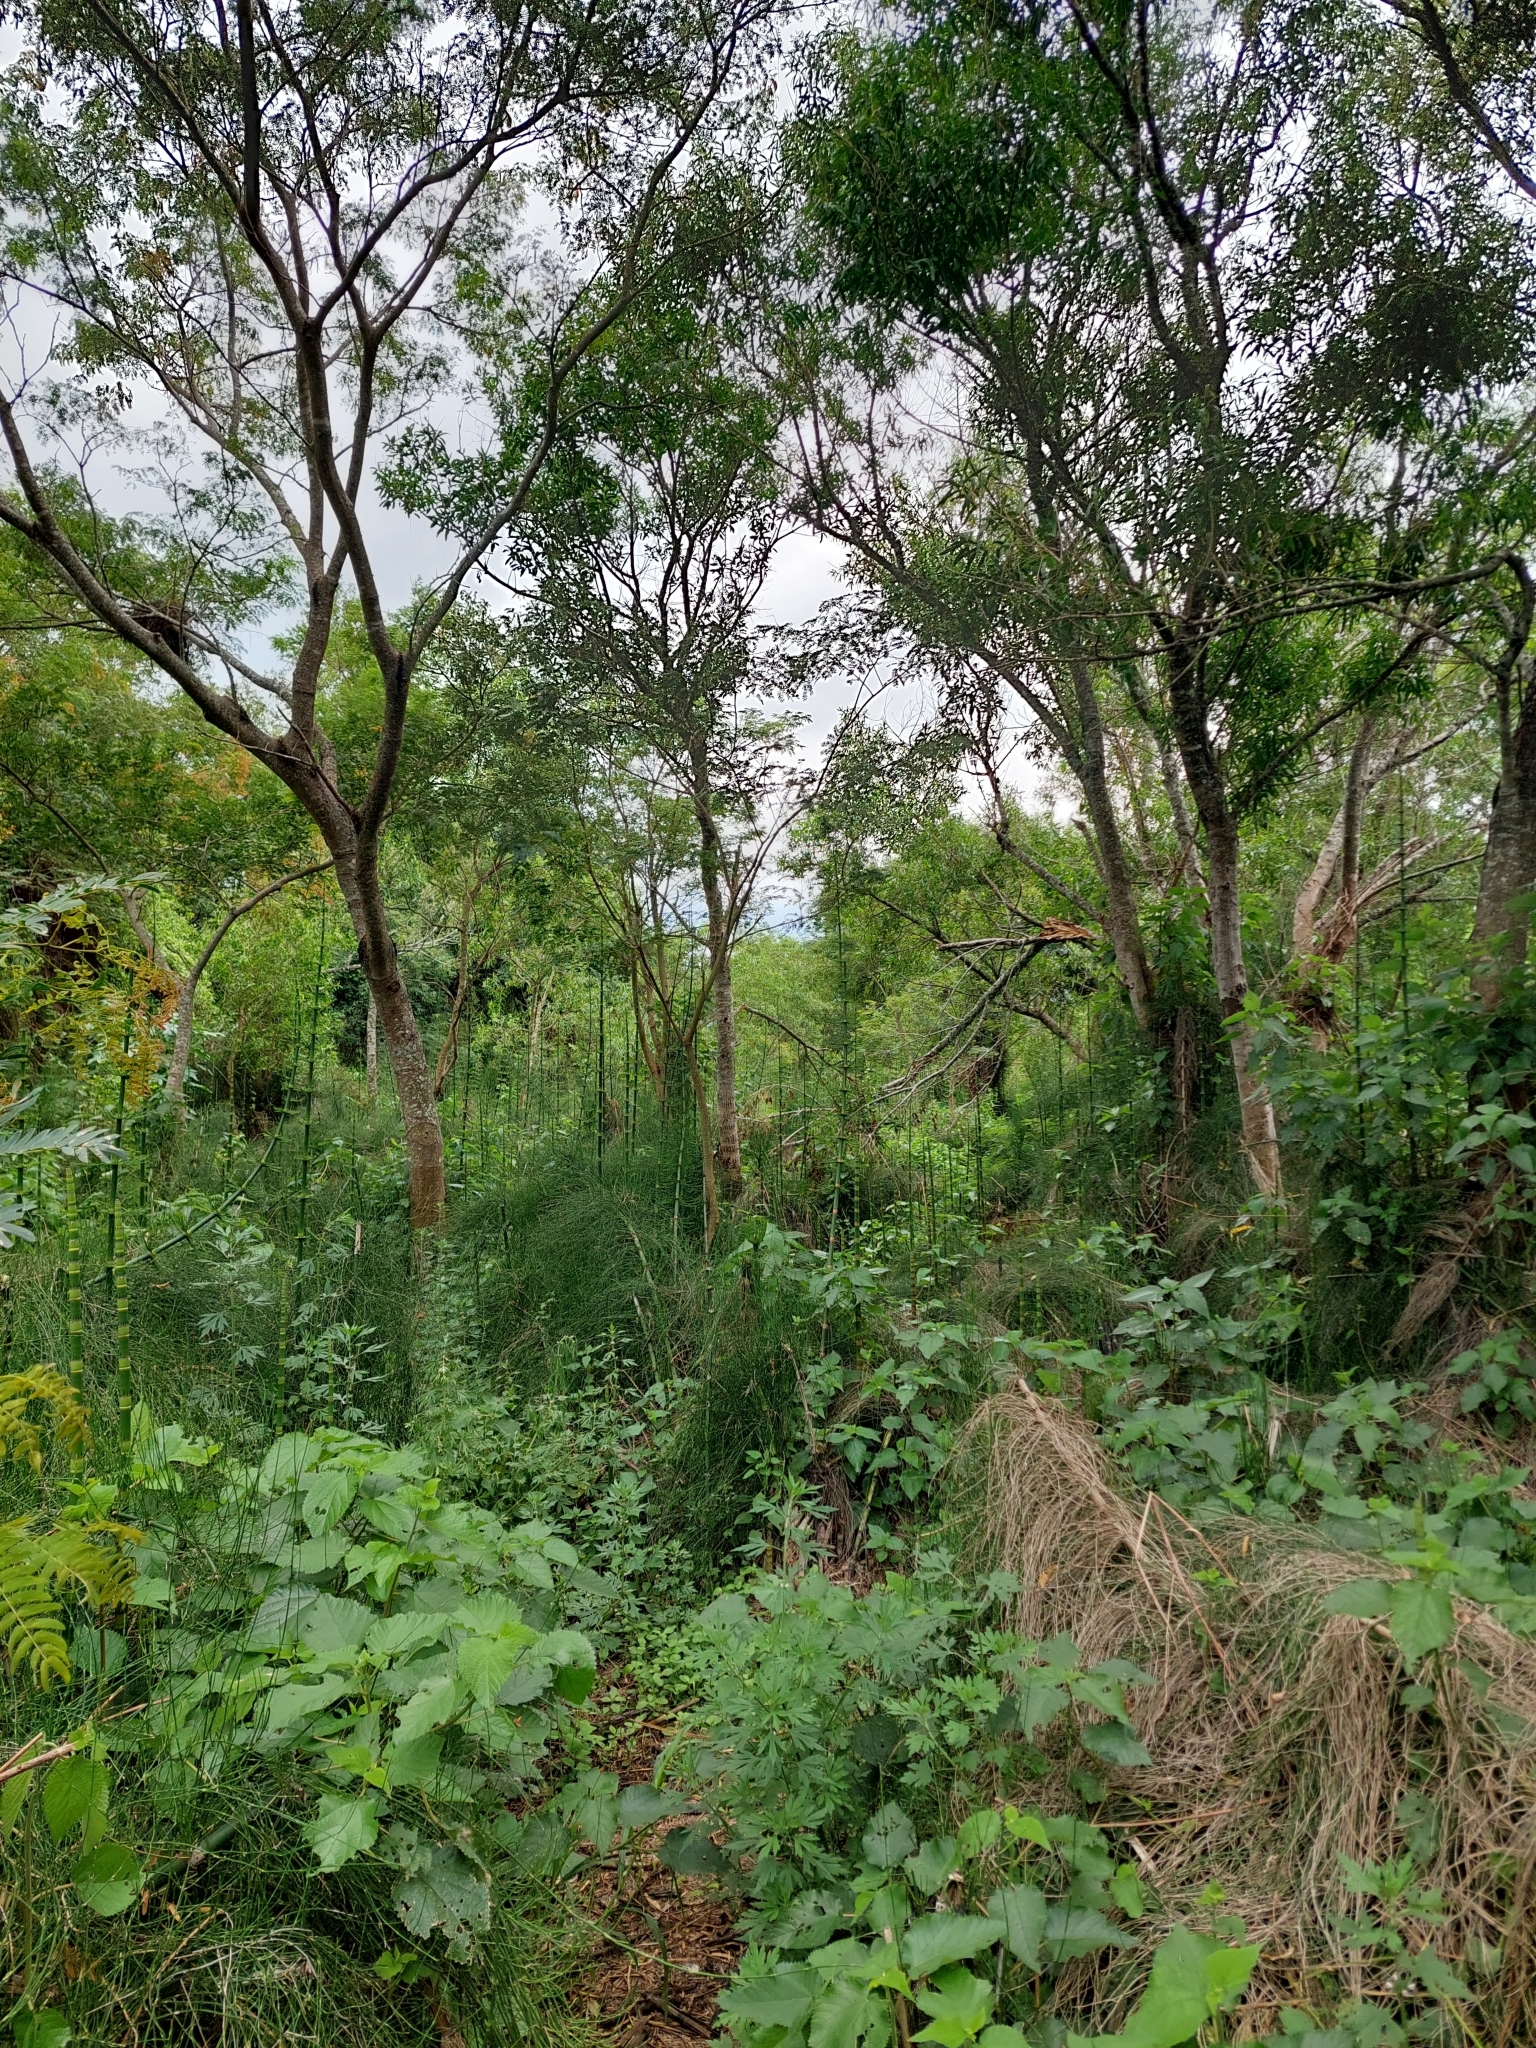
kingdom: Plantae
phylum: Tracheophyta
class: Polypodiopsida
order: Equisetales
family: Equisetaceae
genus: Equisetum
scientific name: Equisetum giganteum
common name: Giant horsetail
